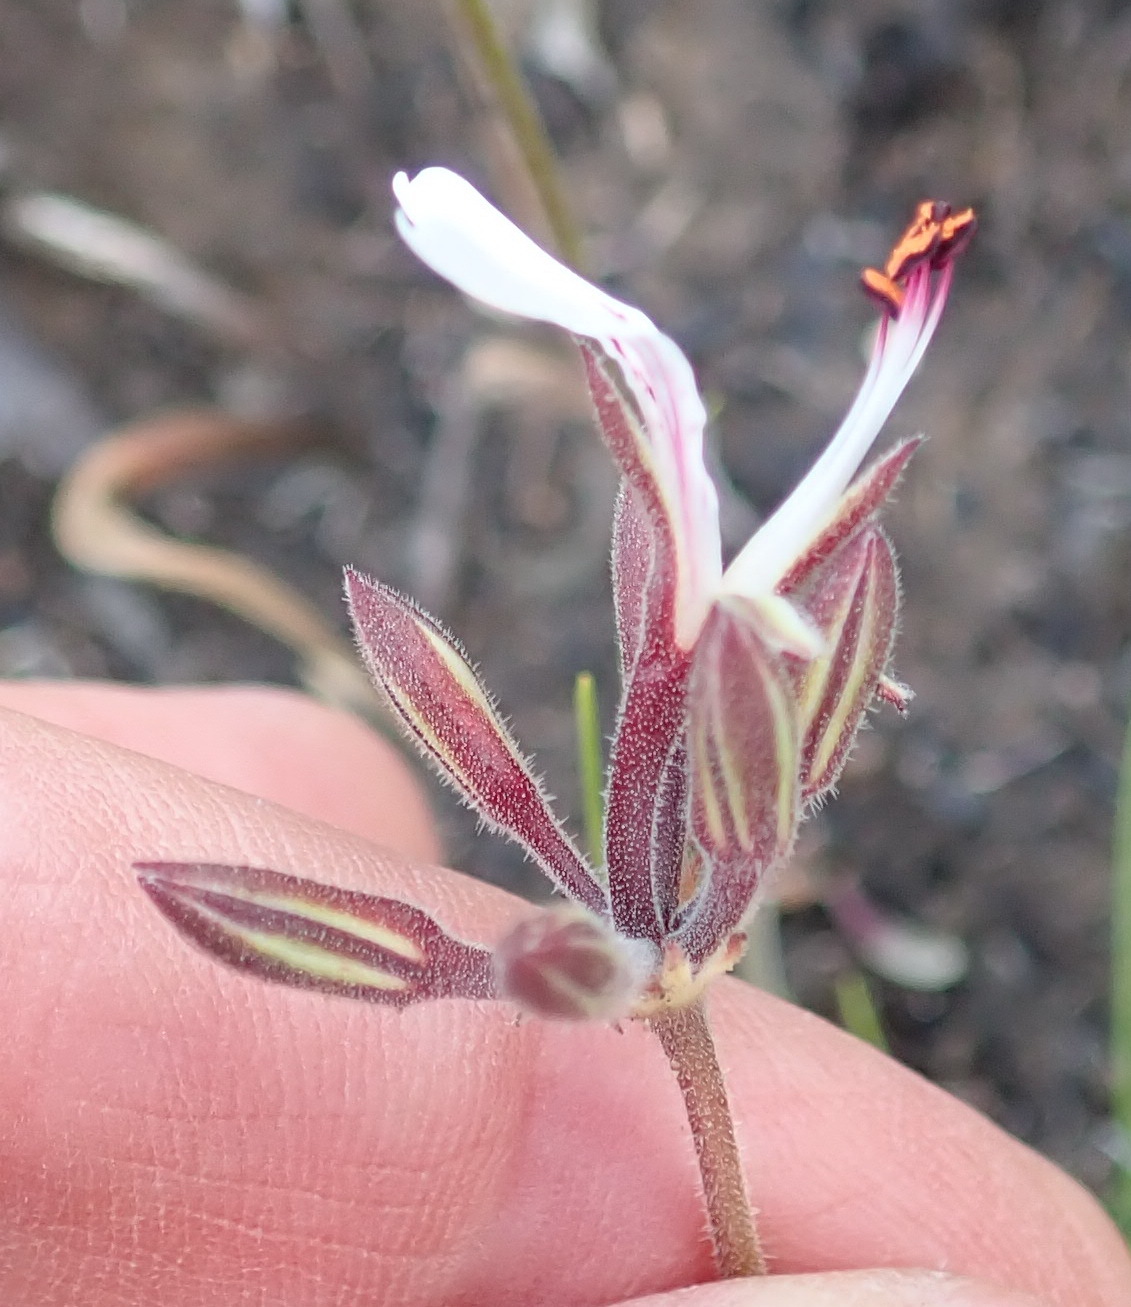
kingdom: Plantae
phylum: Tracheophyta
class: Magnoliopsida
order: Geraniales
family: Geraniaceae
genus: Pelargonium
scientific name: Pelargonium dipetalum
